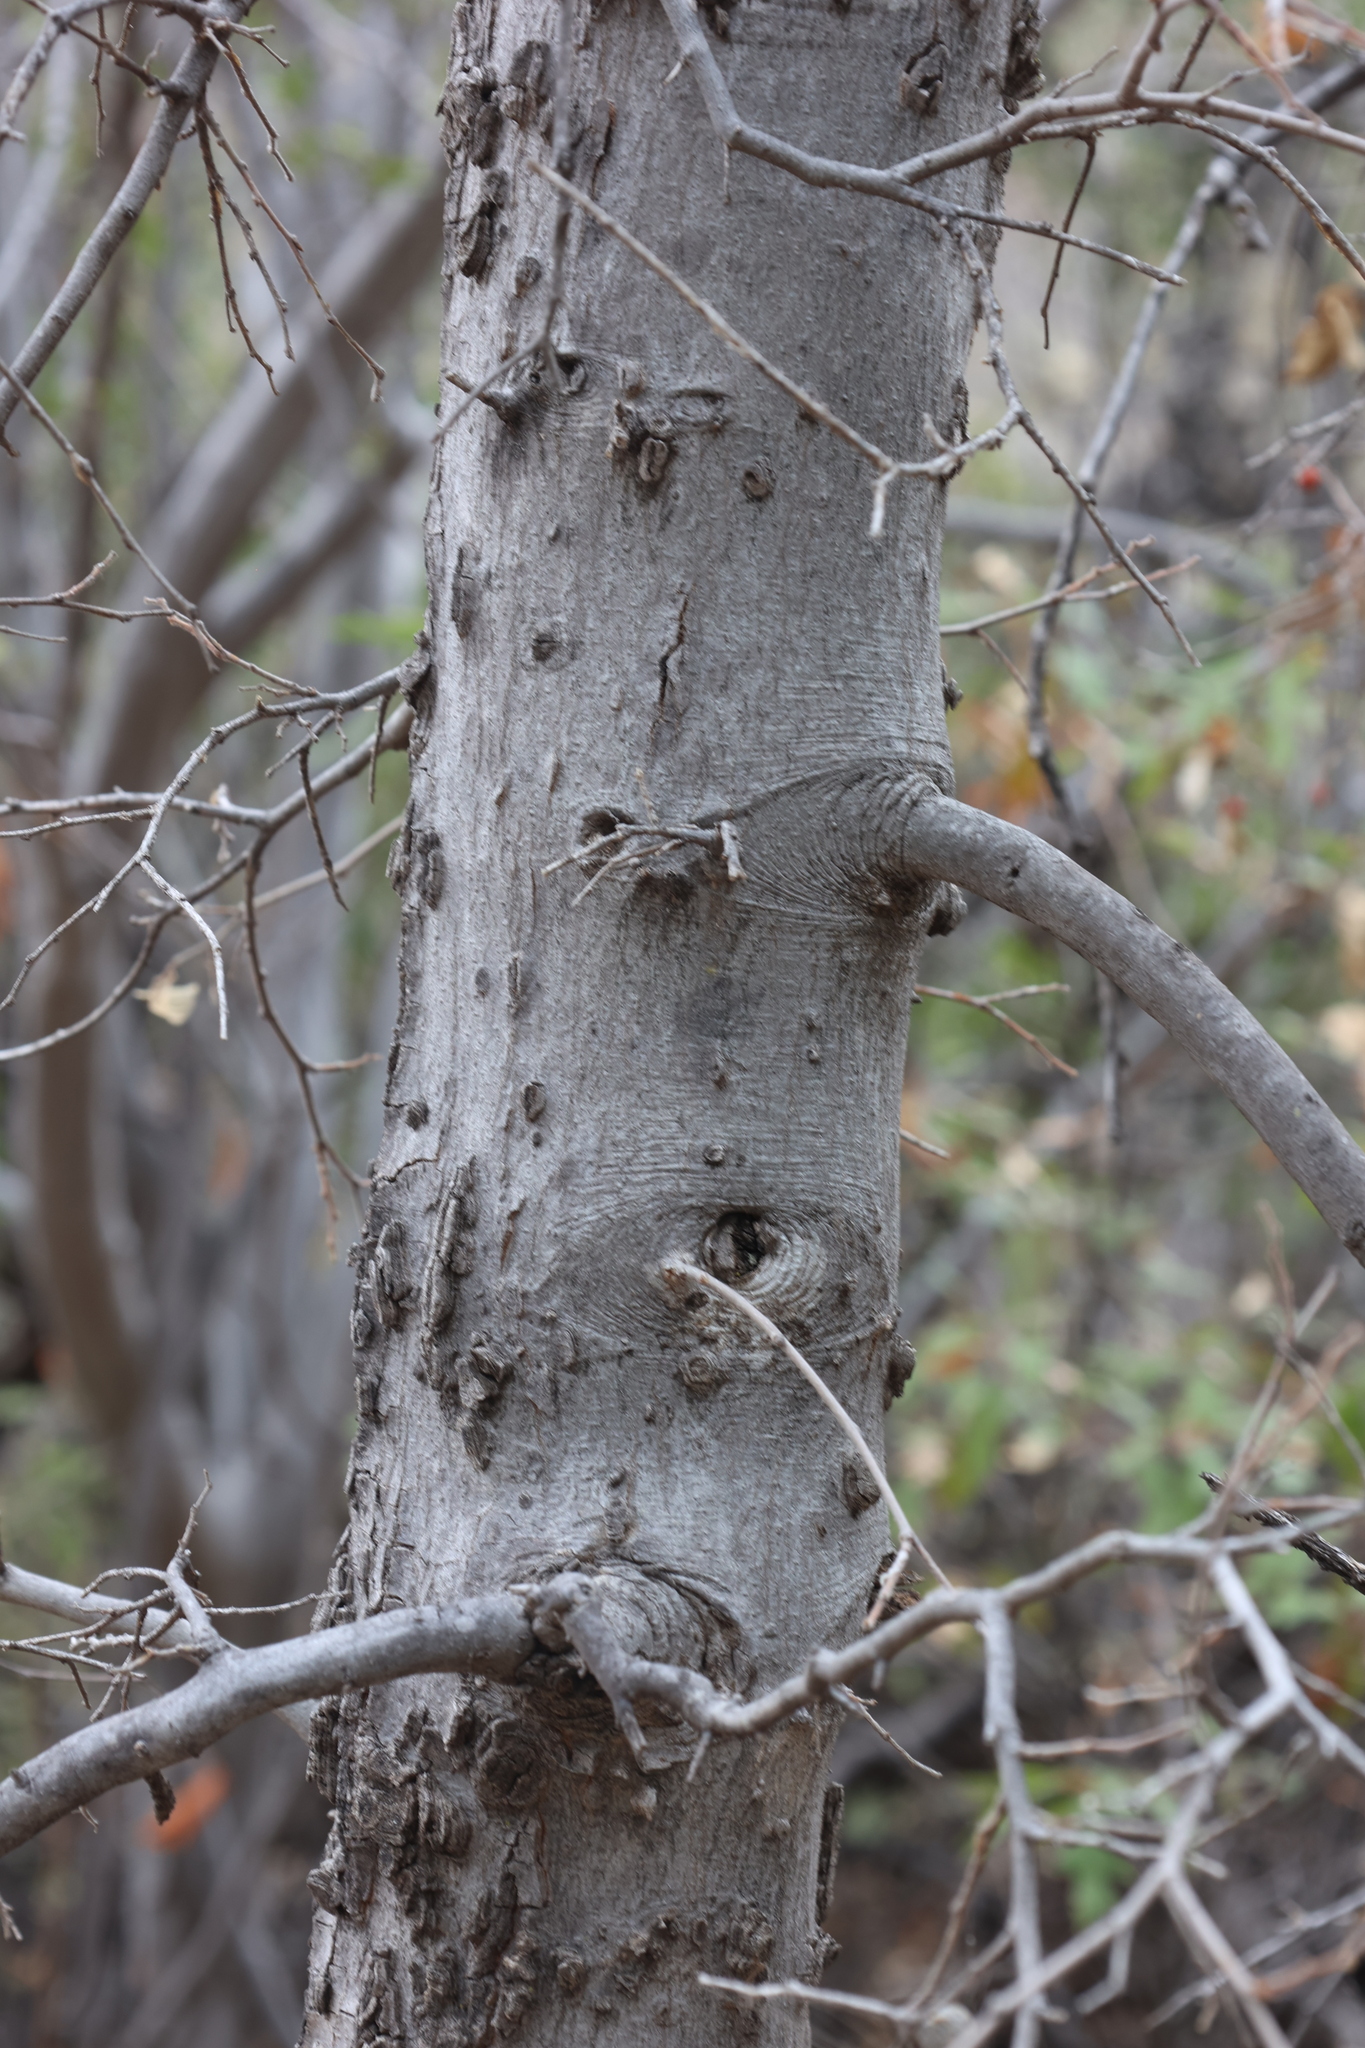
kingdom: Plantae
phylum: Tracheophyta
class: Magnoliopsida
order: Rosales
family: Cannabaceae
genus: Celtis
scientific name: Celtis reticulata
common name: Netleaf hackberry
